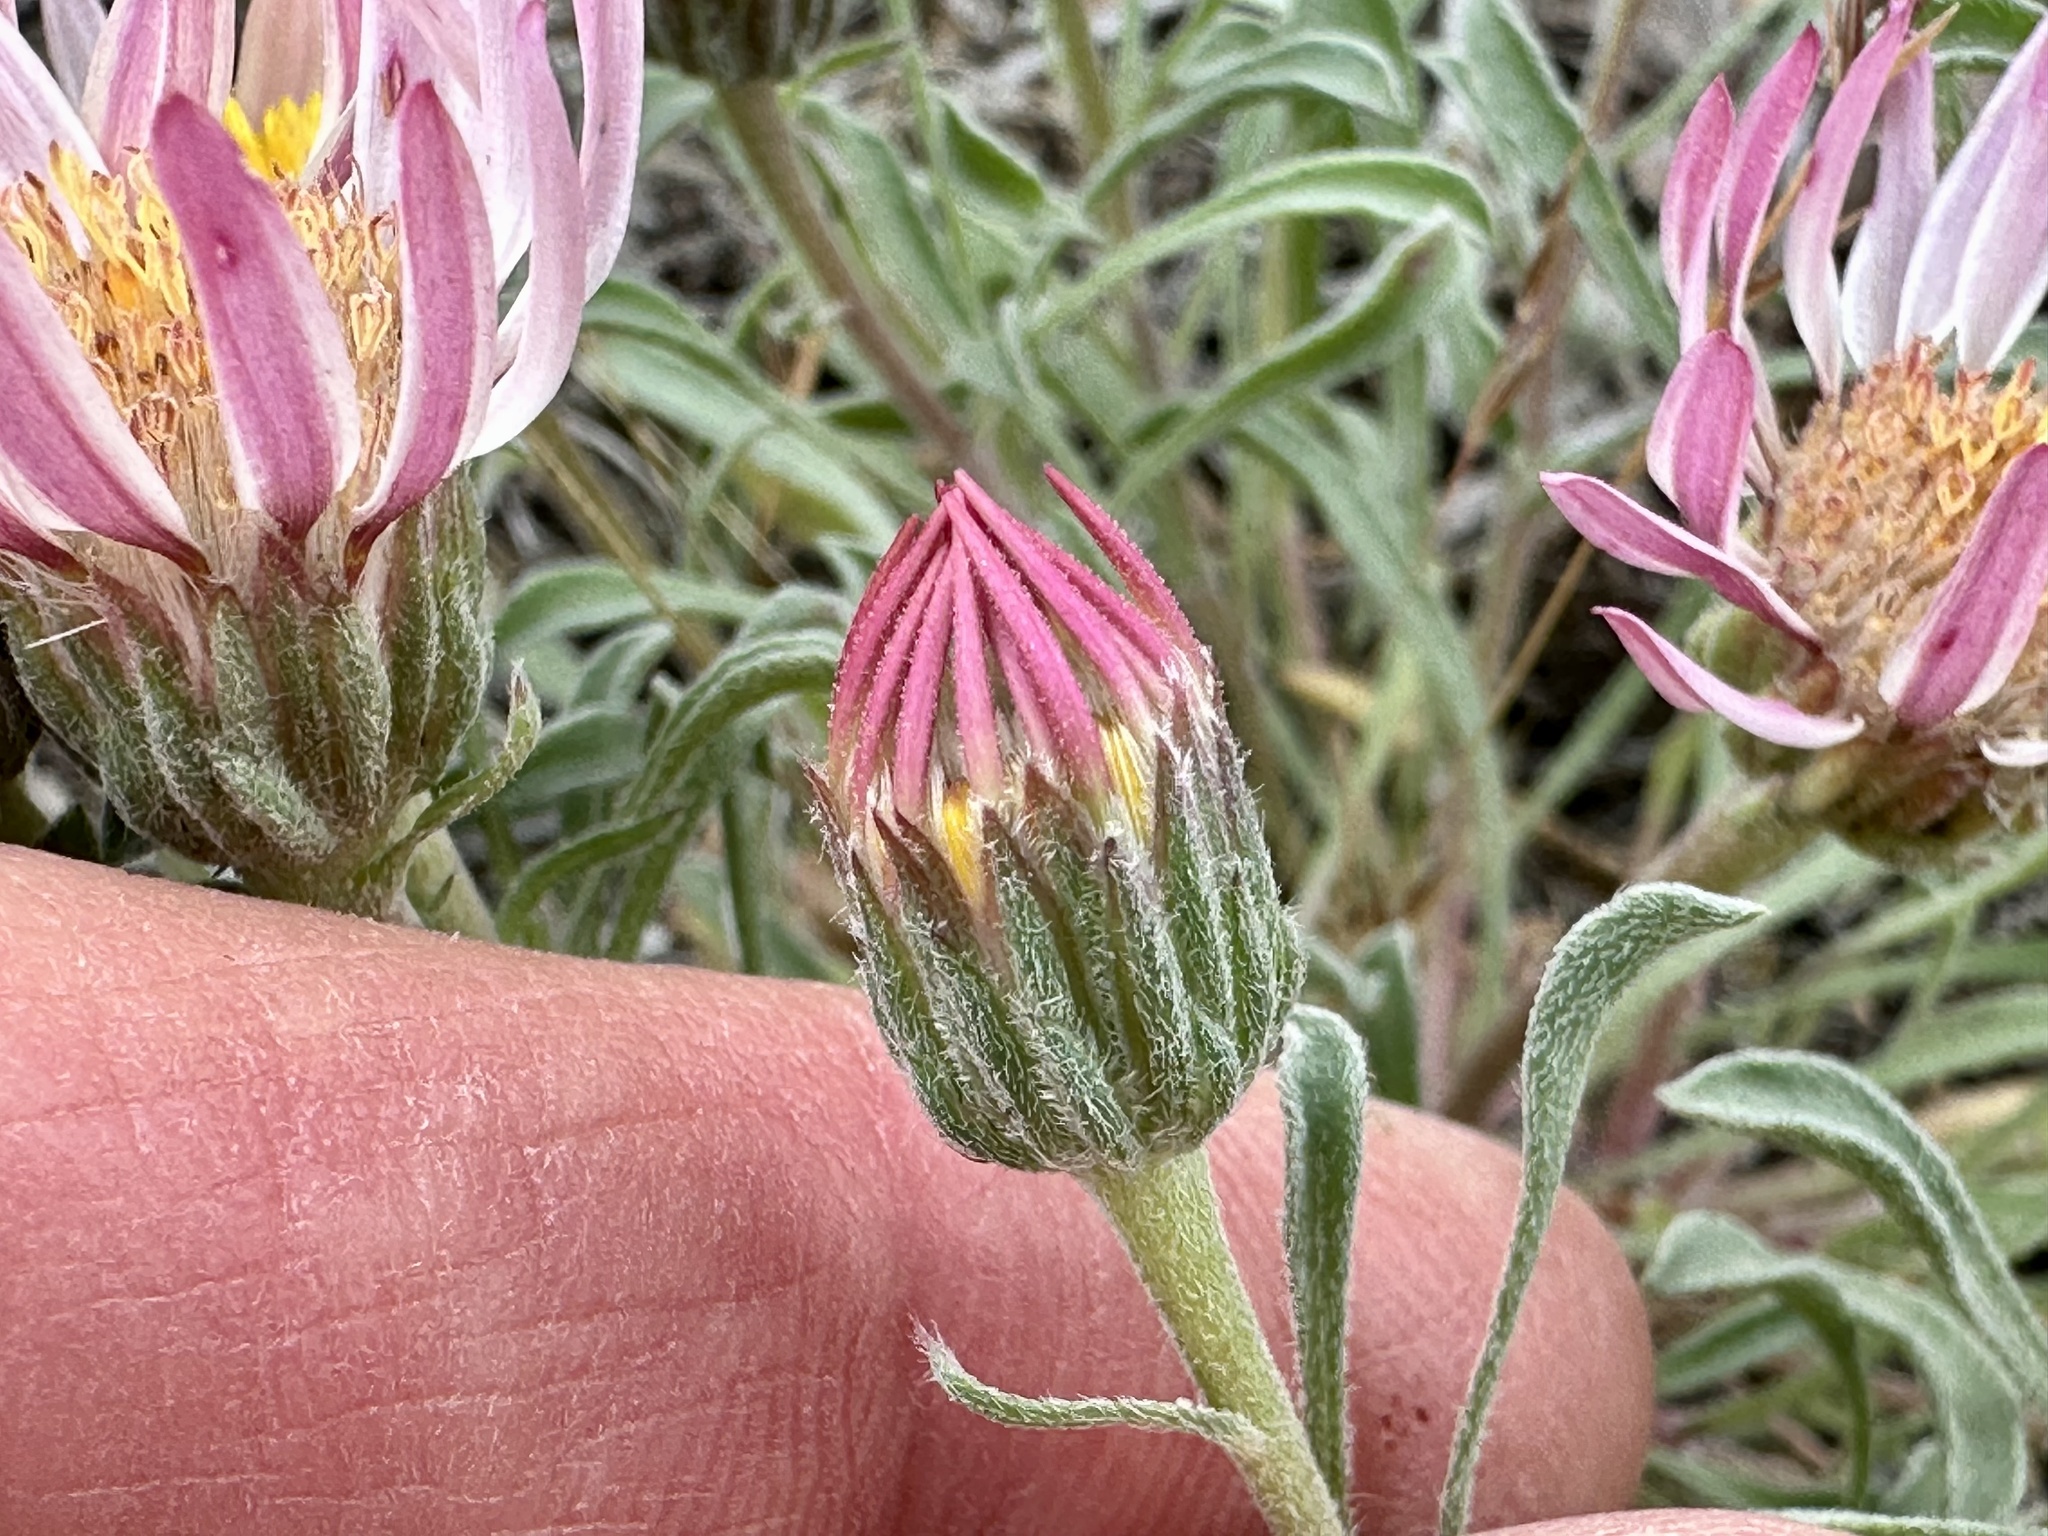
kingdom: Plantae
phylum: Tracheophyta
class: Magnoliopsida
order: Asterales
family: Asteraceae
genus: Townsendia
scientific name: Townsendia florifera
